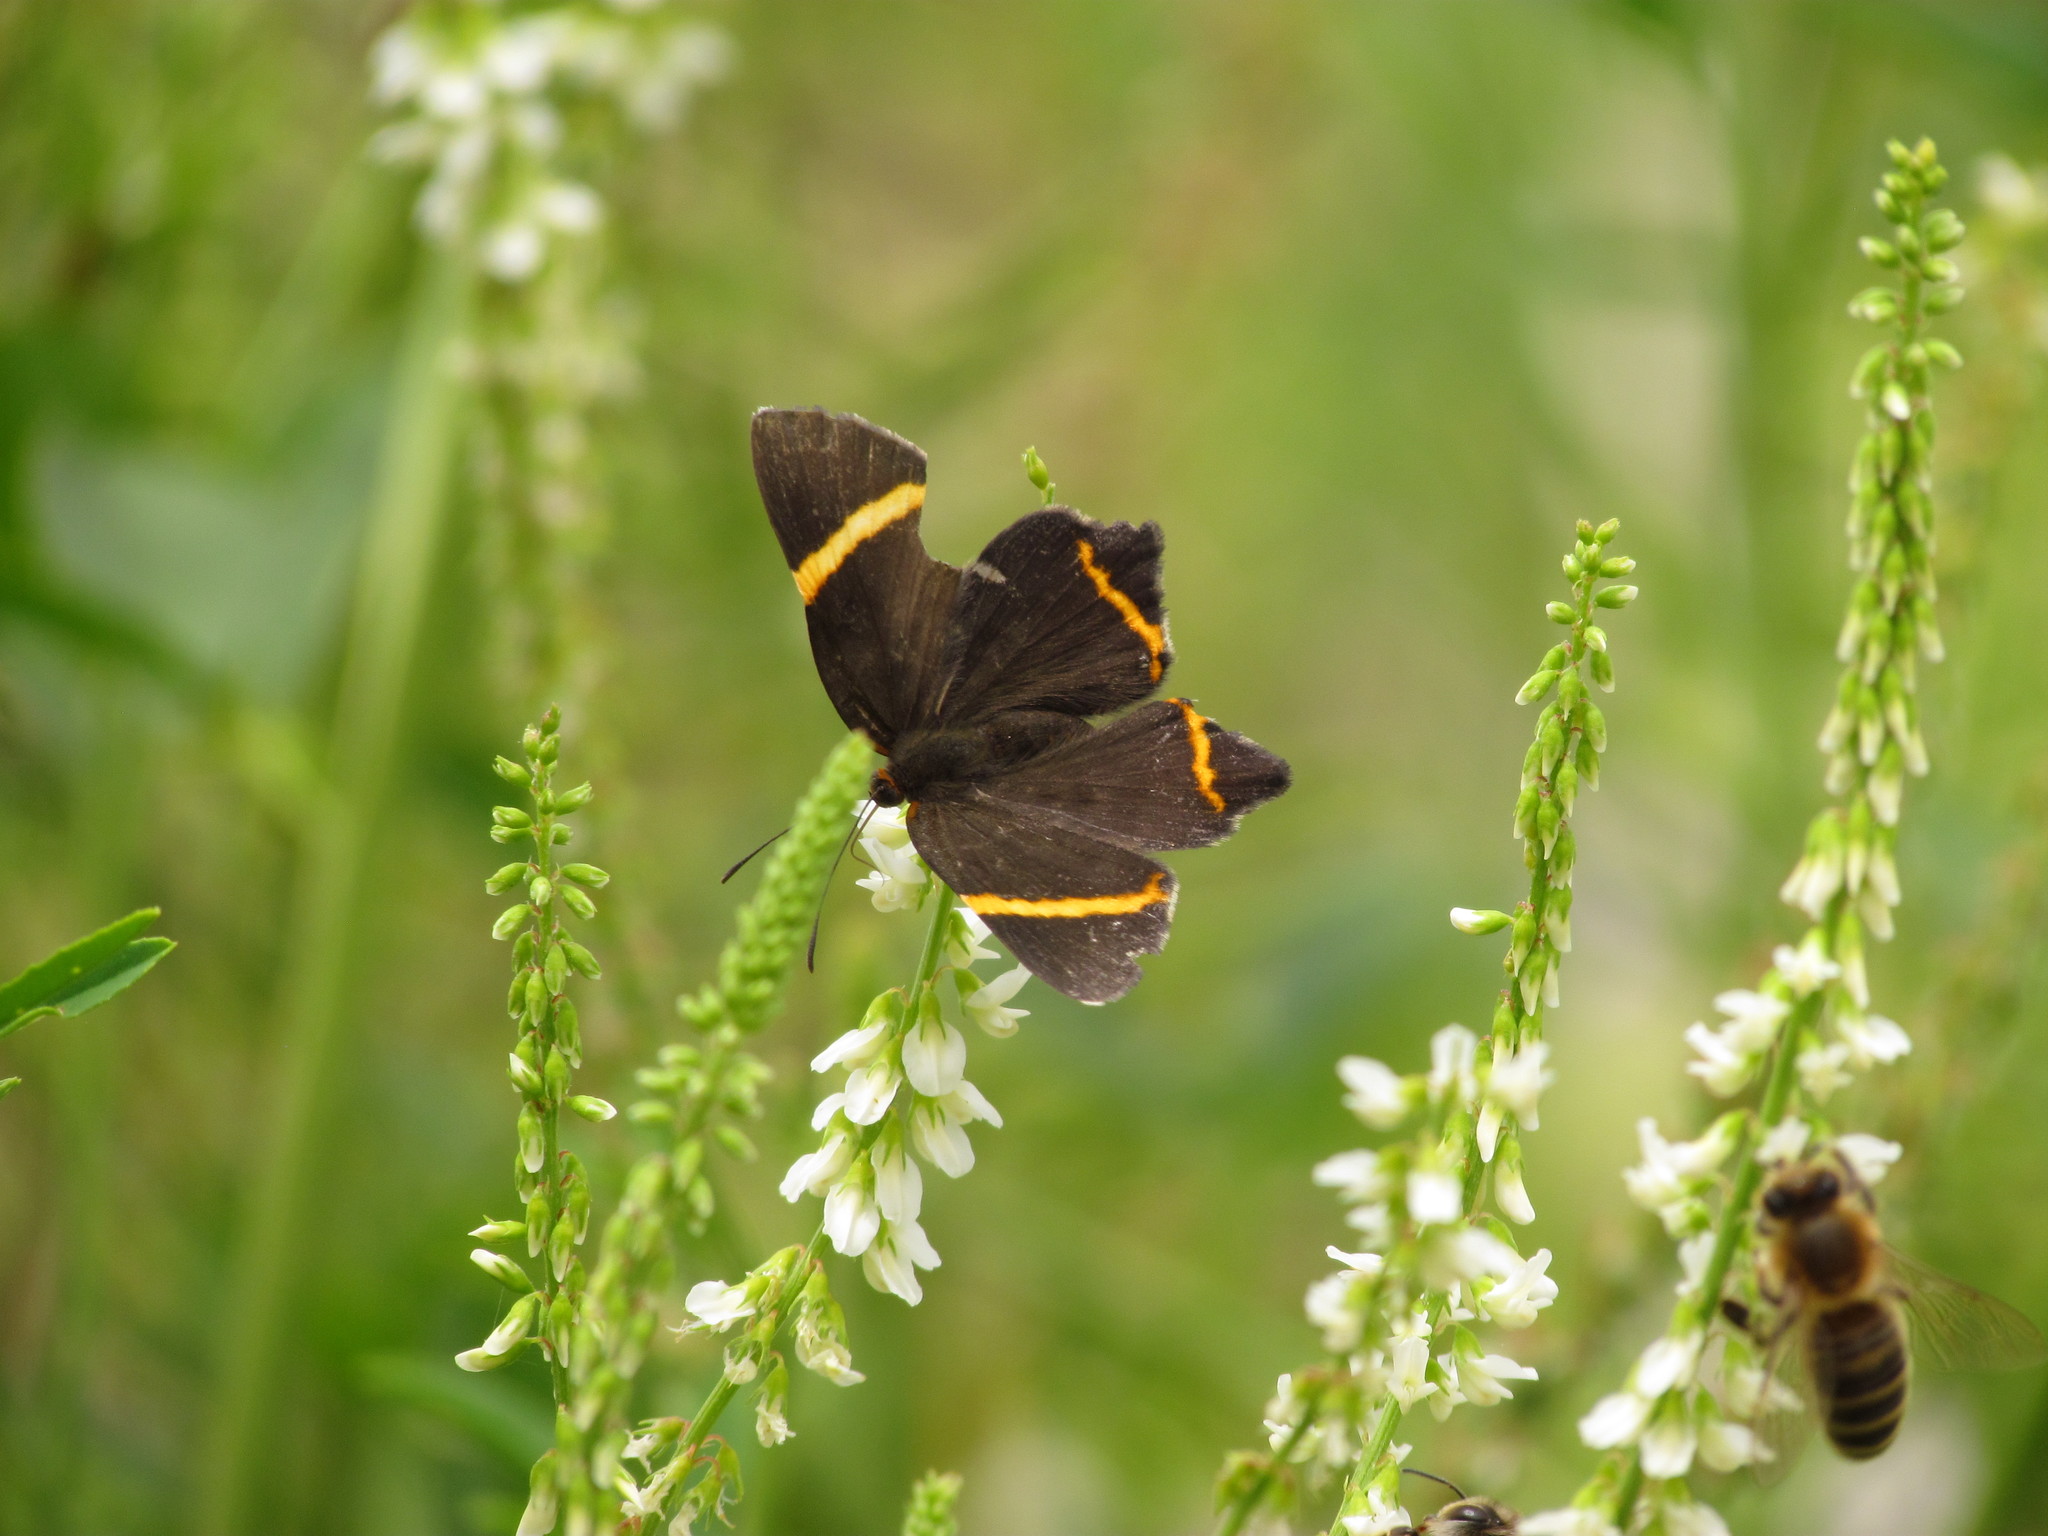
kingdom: Animalia
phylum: Arthropoda
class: Insecta
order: Lepidoptera
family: Riodinidae
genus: Riodina
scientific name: Riodina lysippoides
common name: Little dancer metalmark
